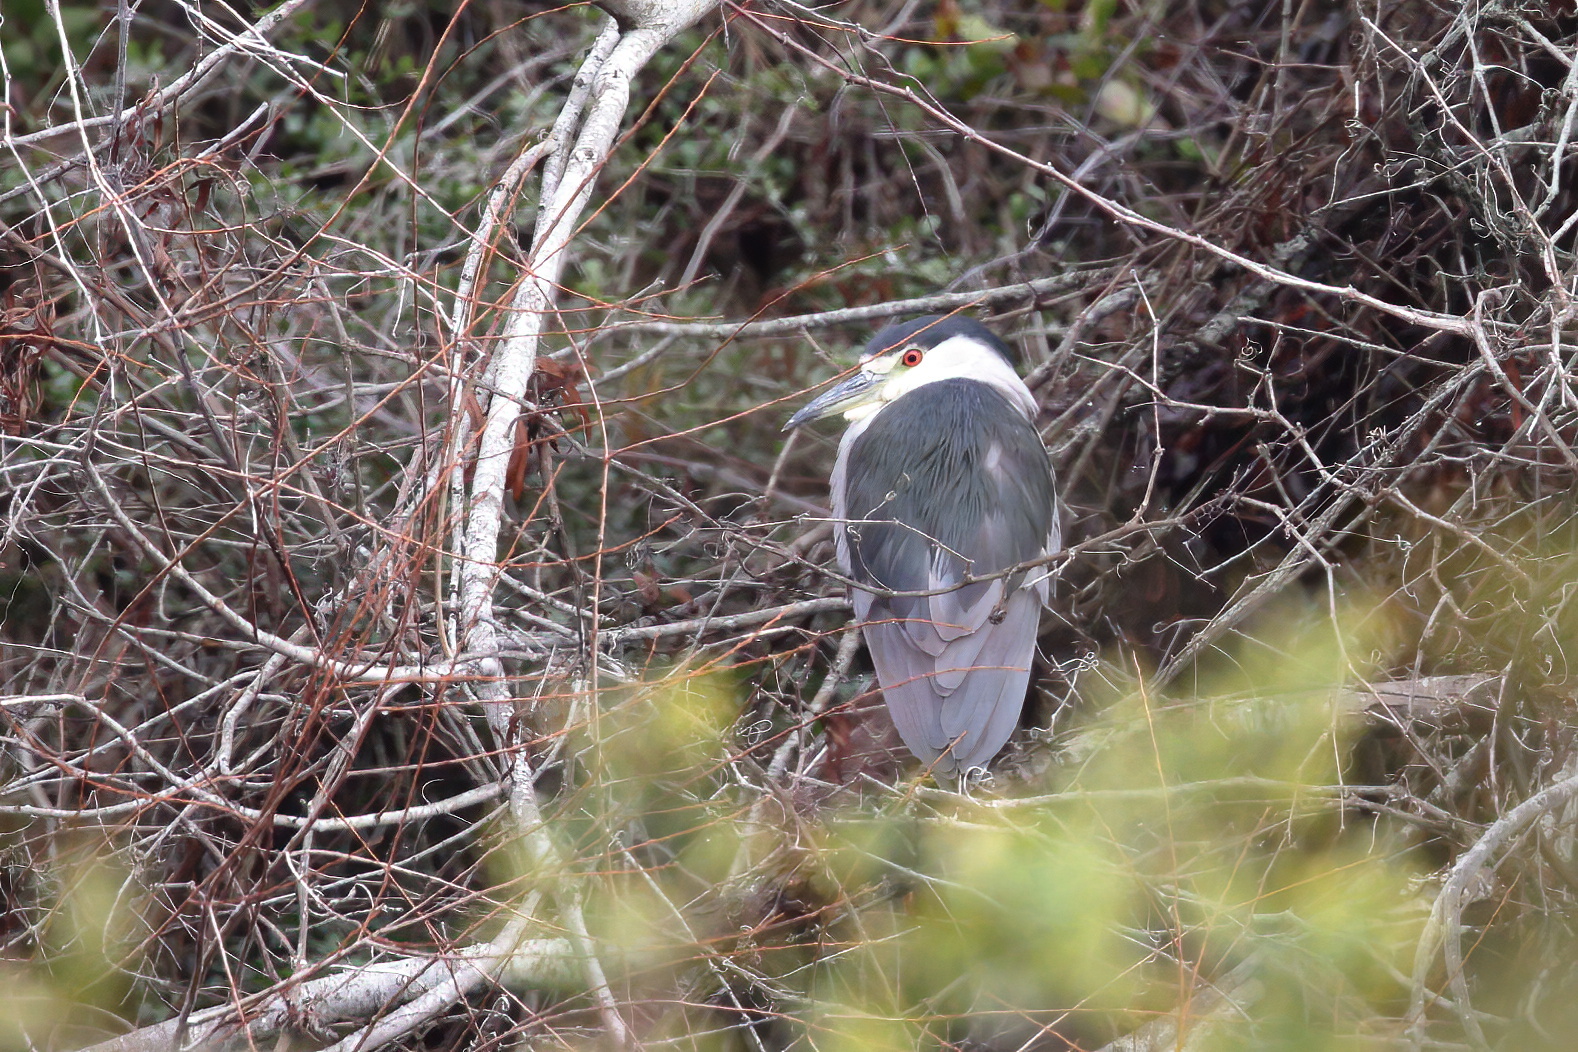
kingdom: Animalia
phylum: Chordata
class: Aves
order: Pelecaniformes
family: Ardeidae
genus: Nycticorax
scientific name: Nycticorax nycticorax
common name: Black-crowned night heron
